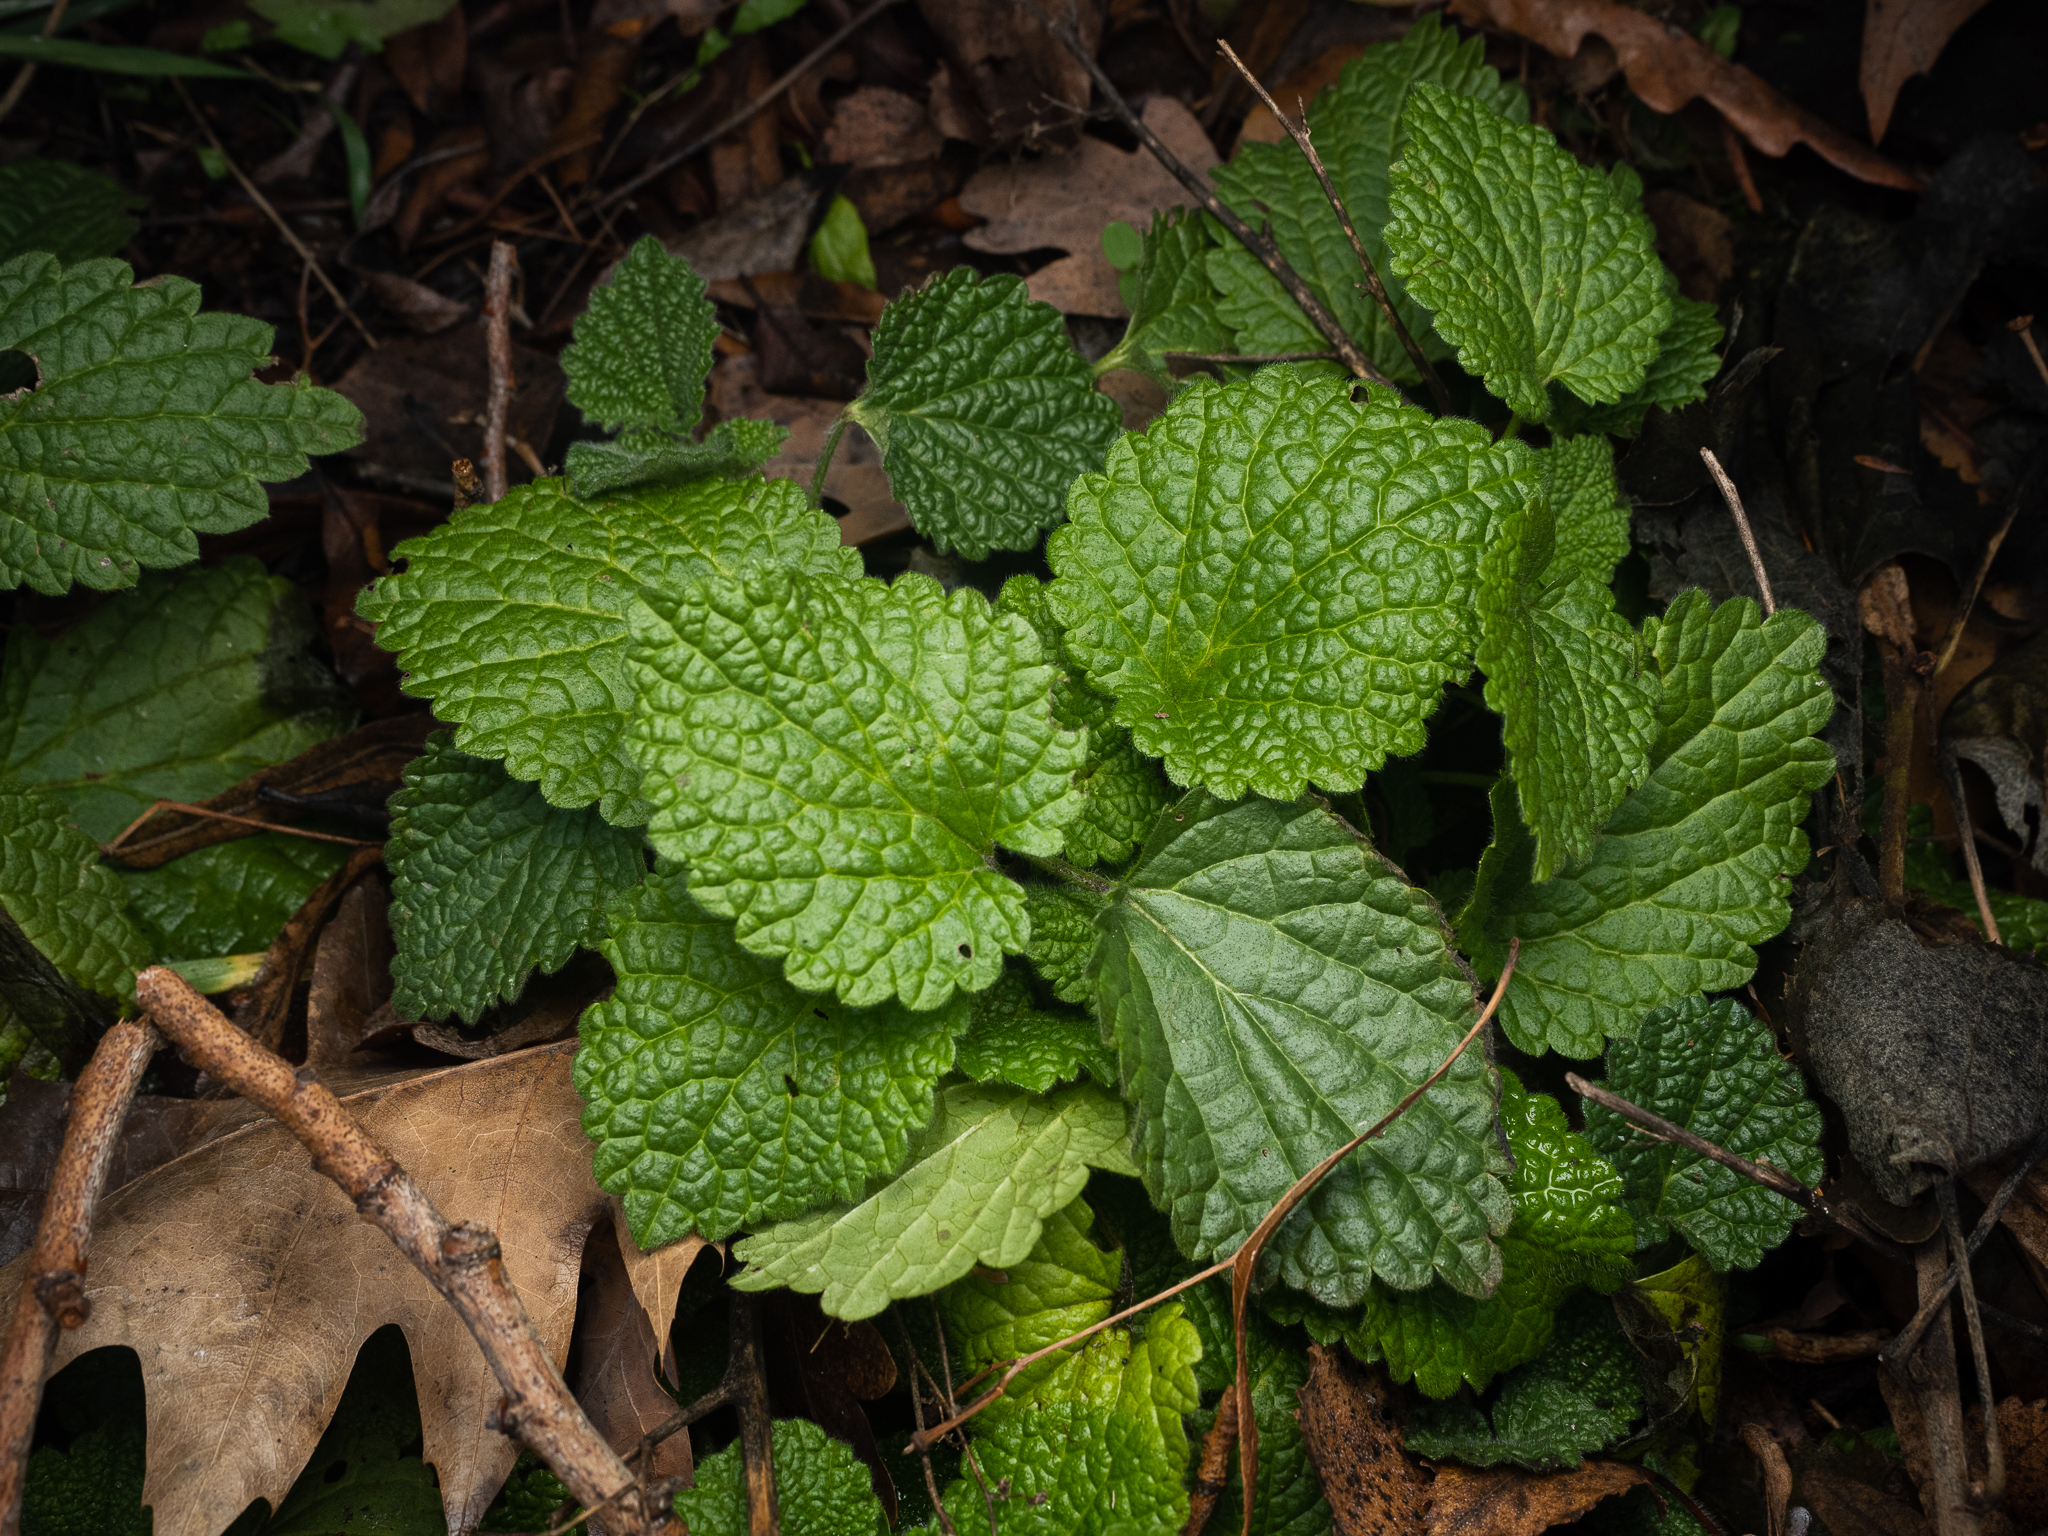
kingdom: Plantae
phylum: Tracheophyta
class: Magnoliopsida
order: Lamiales
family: Lamiaceae
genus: Ballota
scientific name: Ballota nigra
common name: Black horehound
